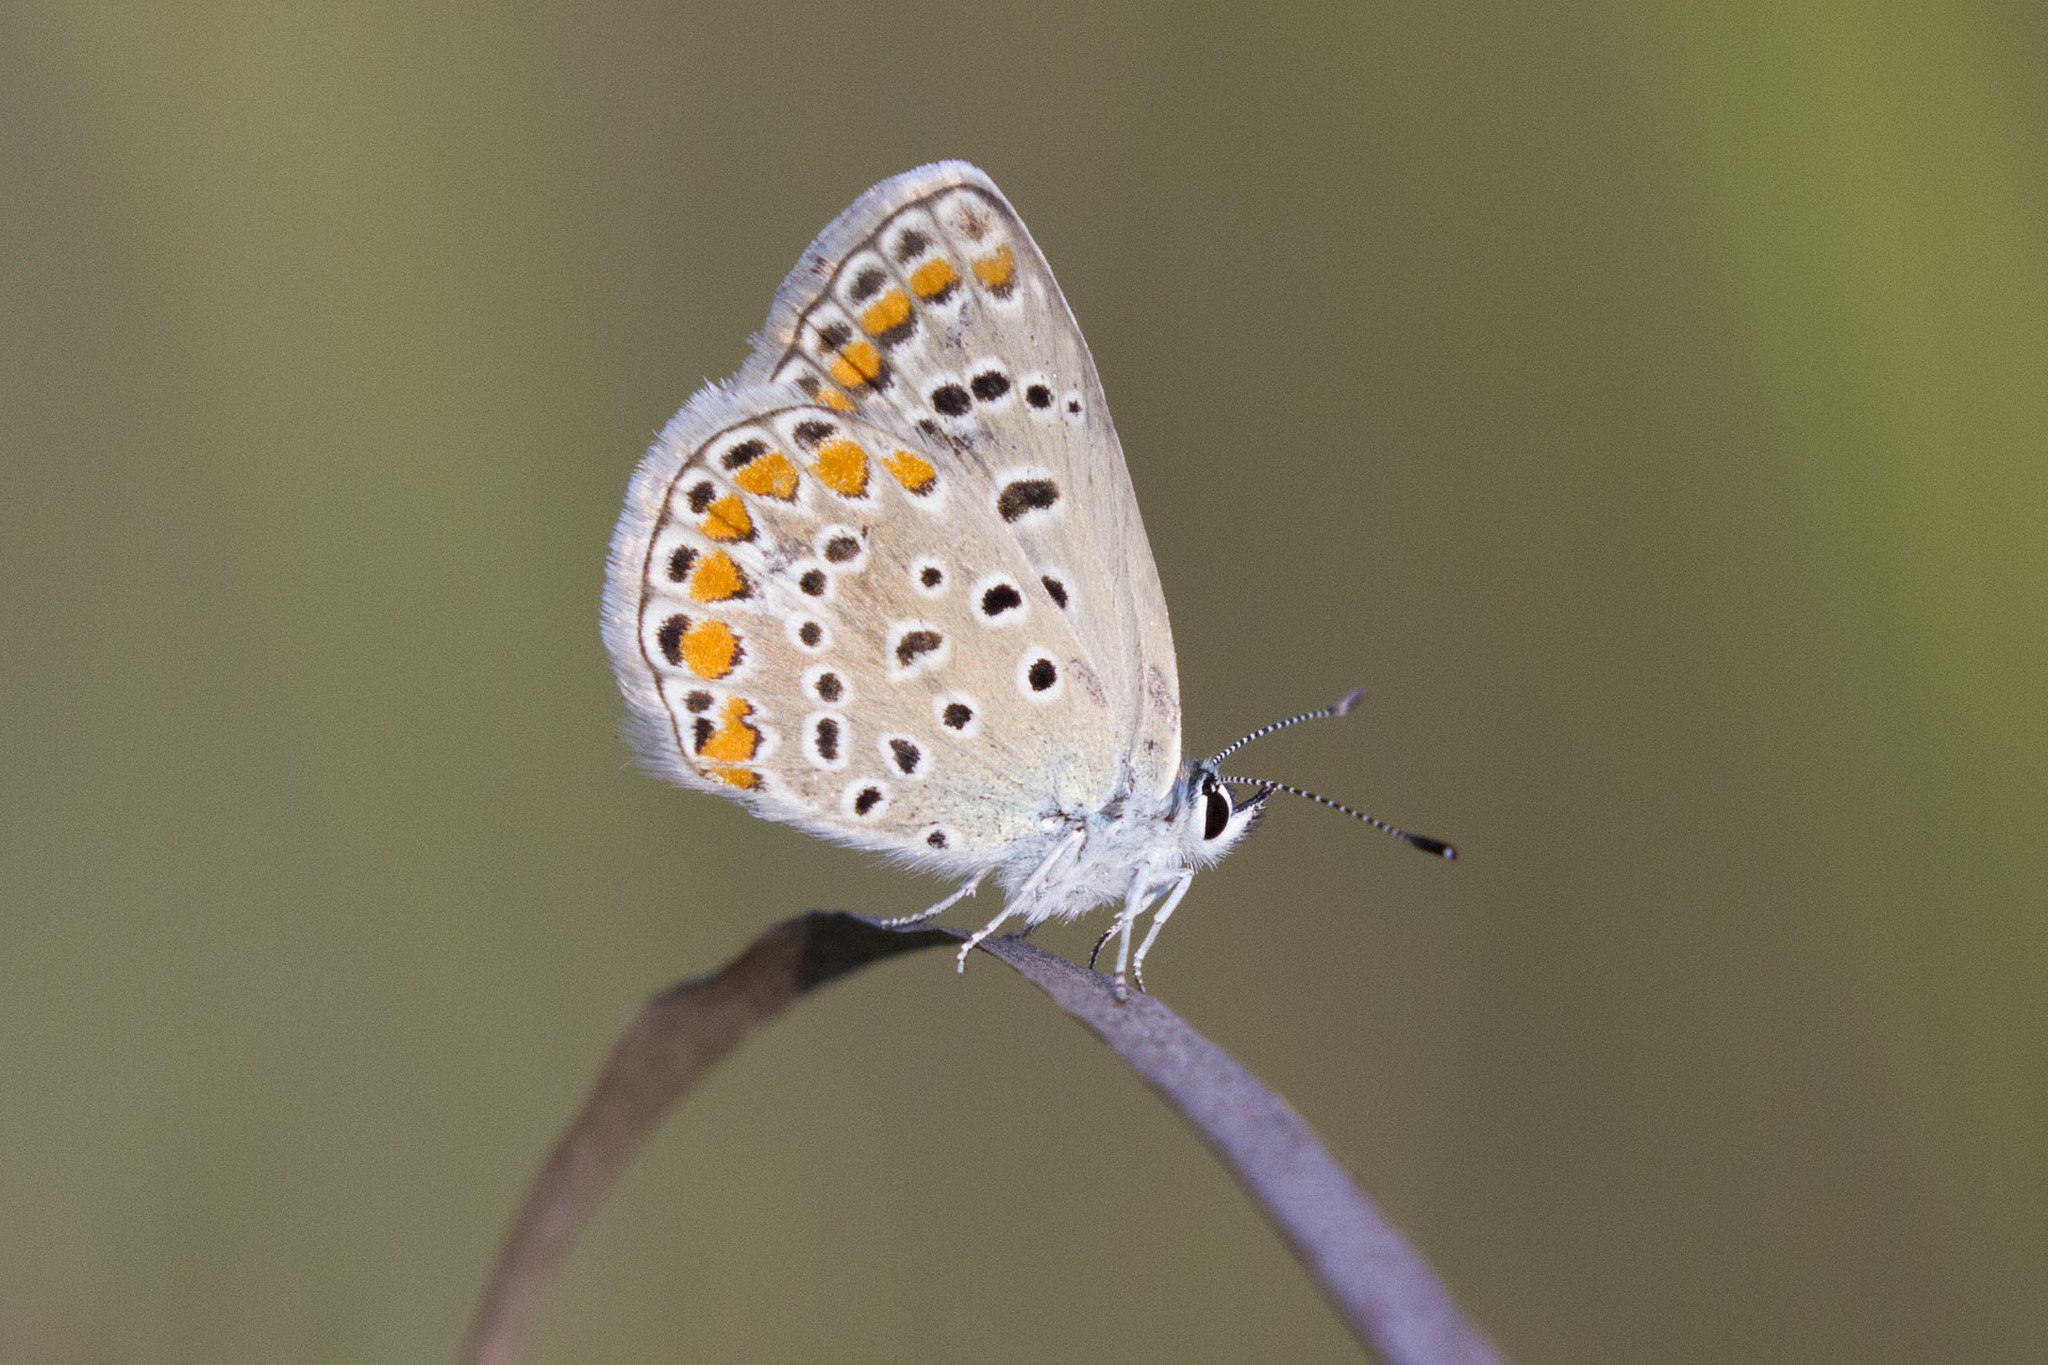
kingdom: Animalia
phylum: Arthropoda
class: Insecta
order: Lepidoptera
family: Lycaenidae
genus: Polyommatus
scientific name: Polyommatus icarus
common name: Common blue
